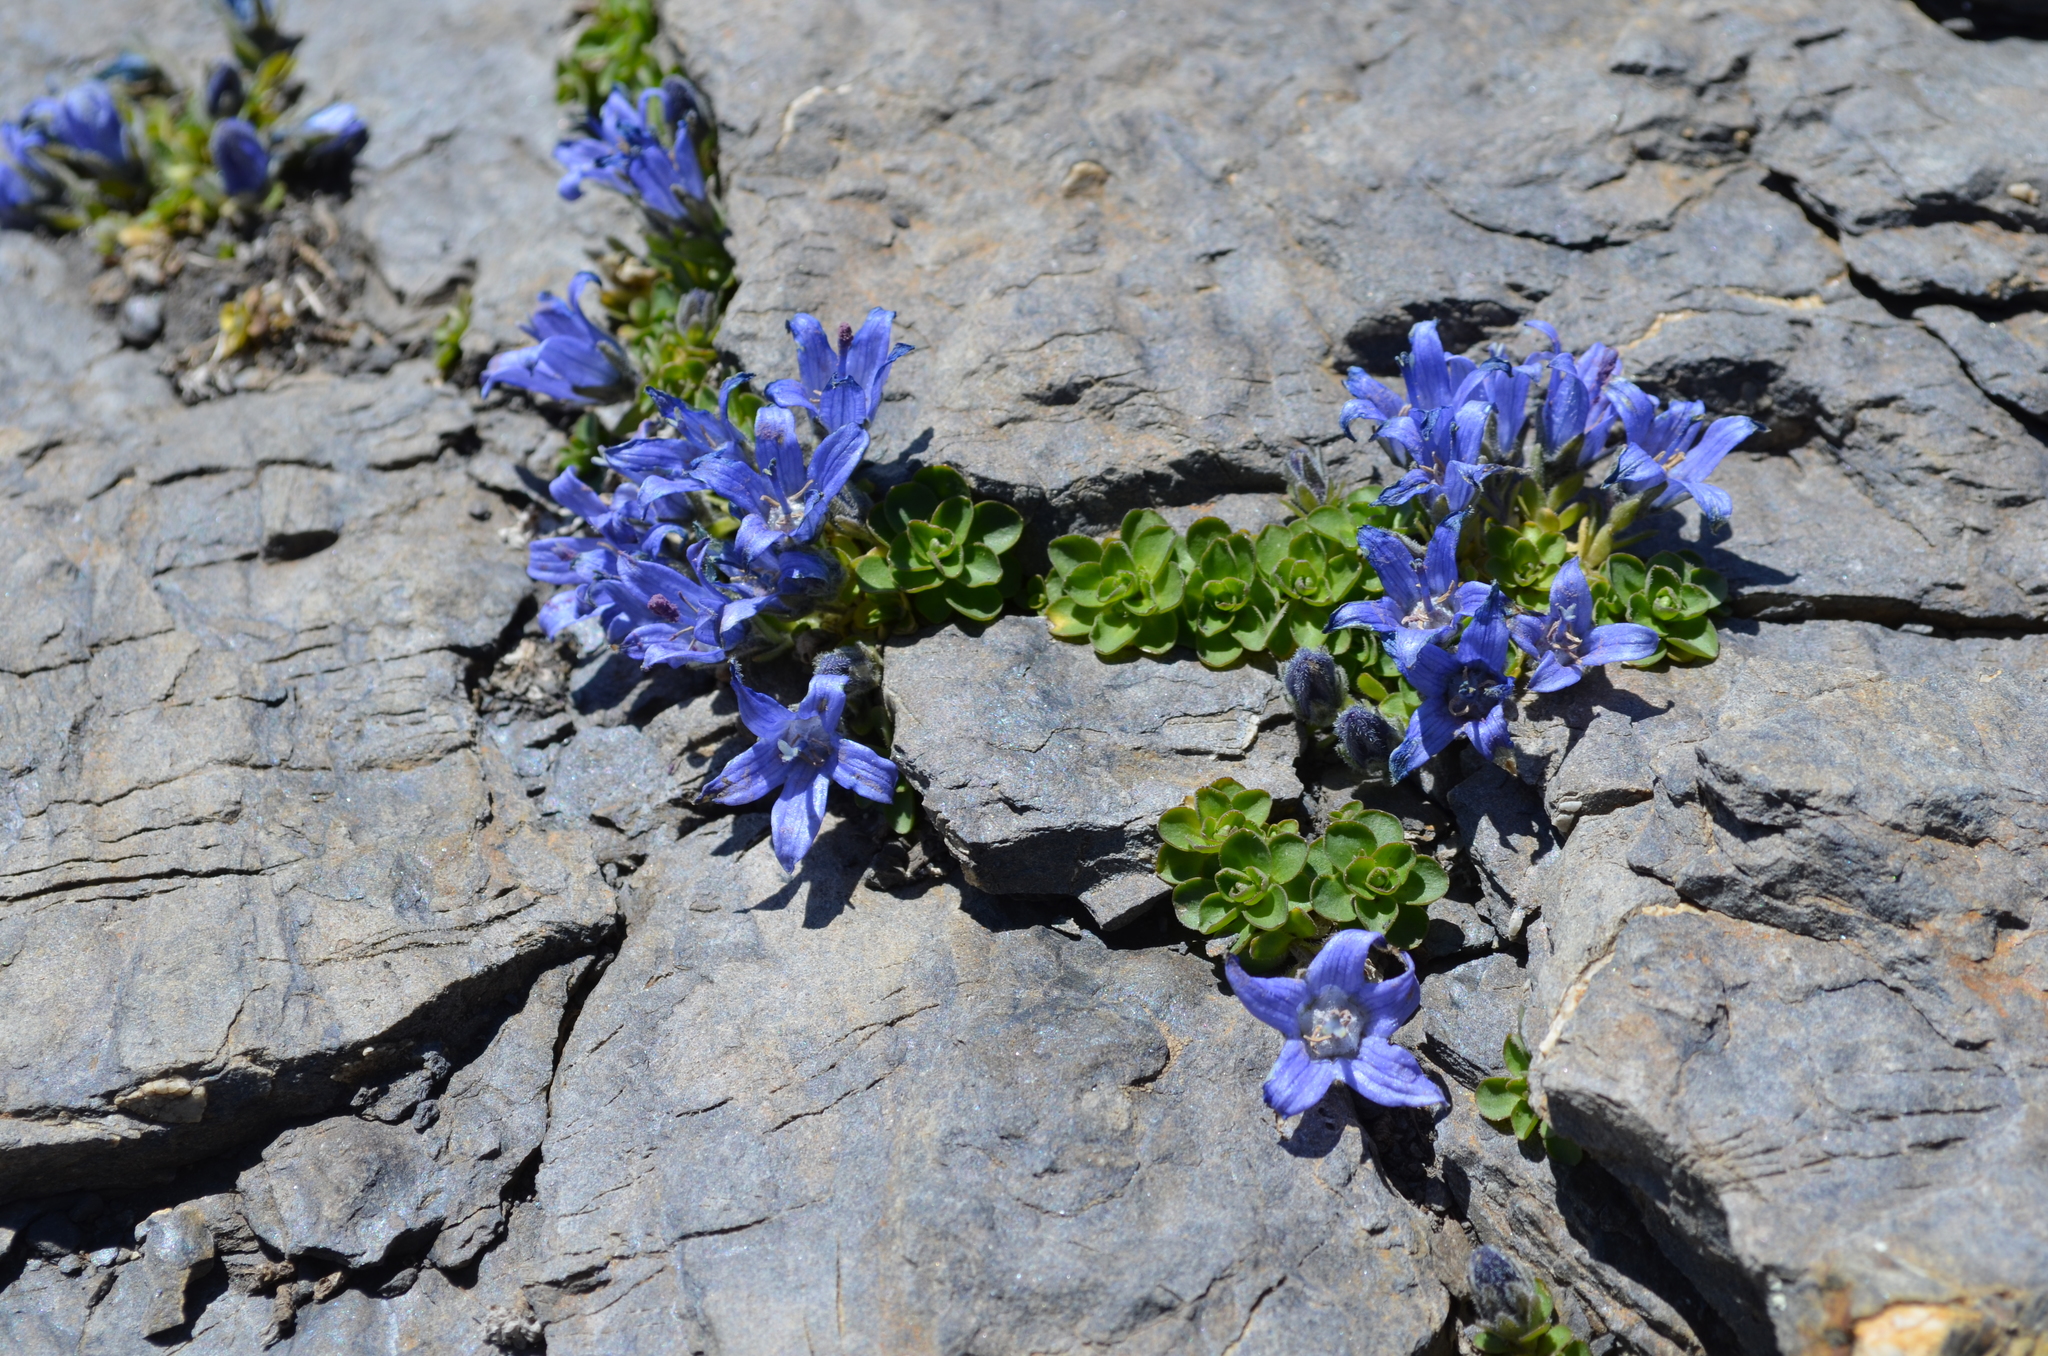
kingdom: Plantae
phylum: Tracheophyta
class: Magnoliopsida
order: Asterales
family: Campanulaceae
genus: Campanula
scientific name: Campanula cenisia
